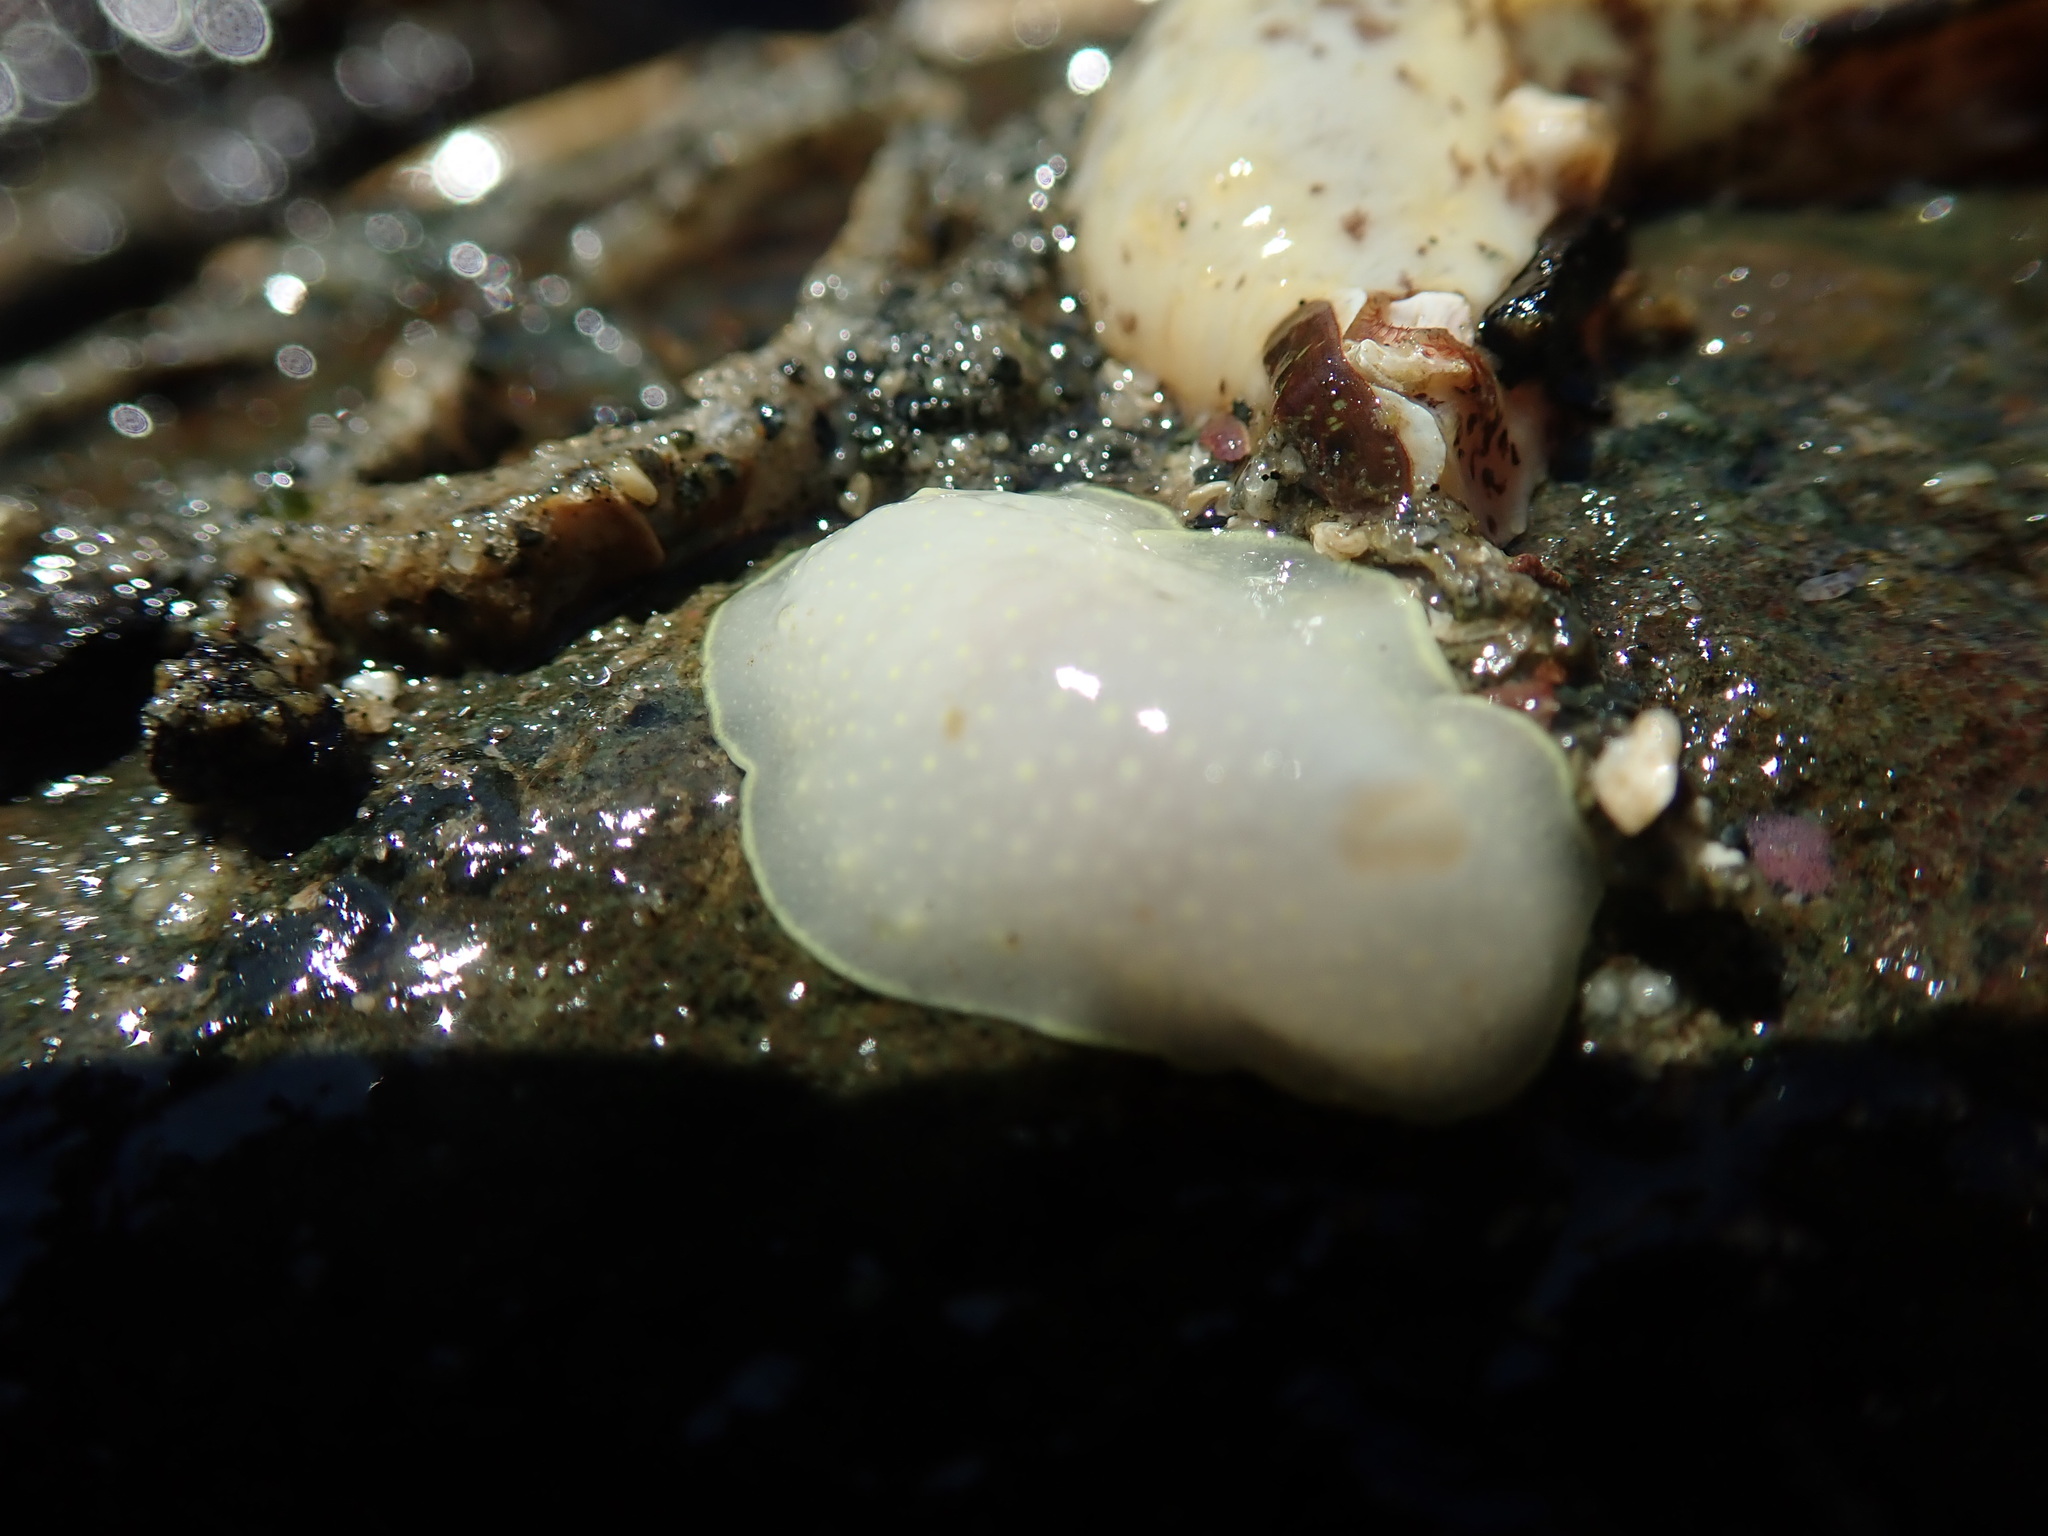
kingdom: Animalia
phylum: Mollusca
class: Gastropoda
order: Nudibranchia
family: Cadlinidae
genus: Cadlina
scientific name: Cadlina luteomarginata
